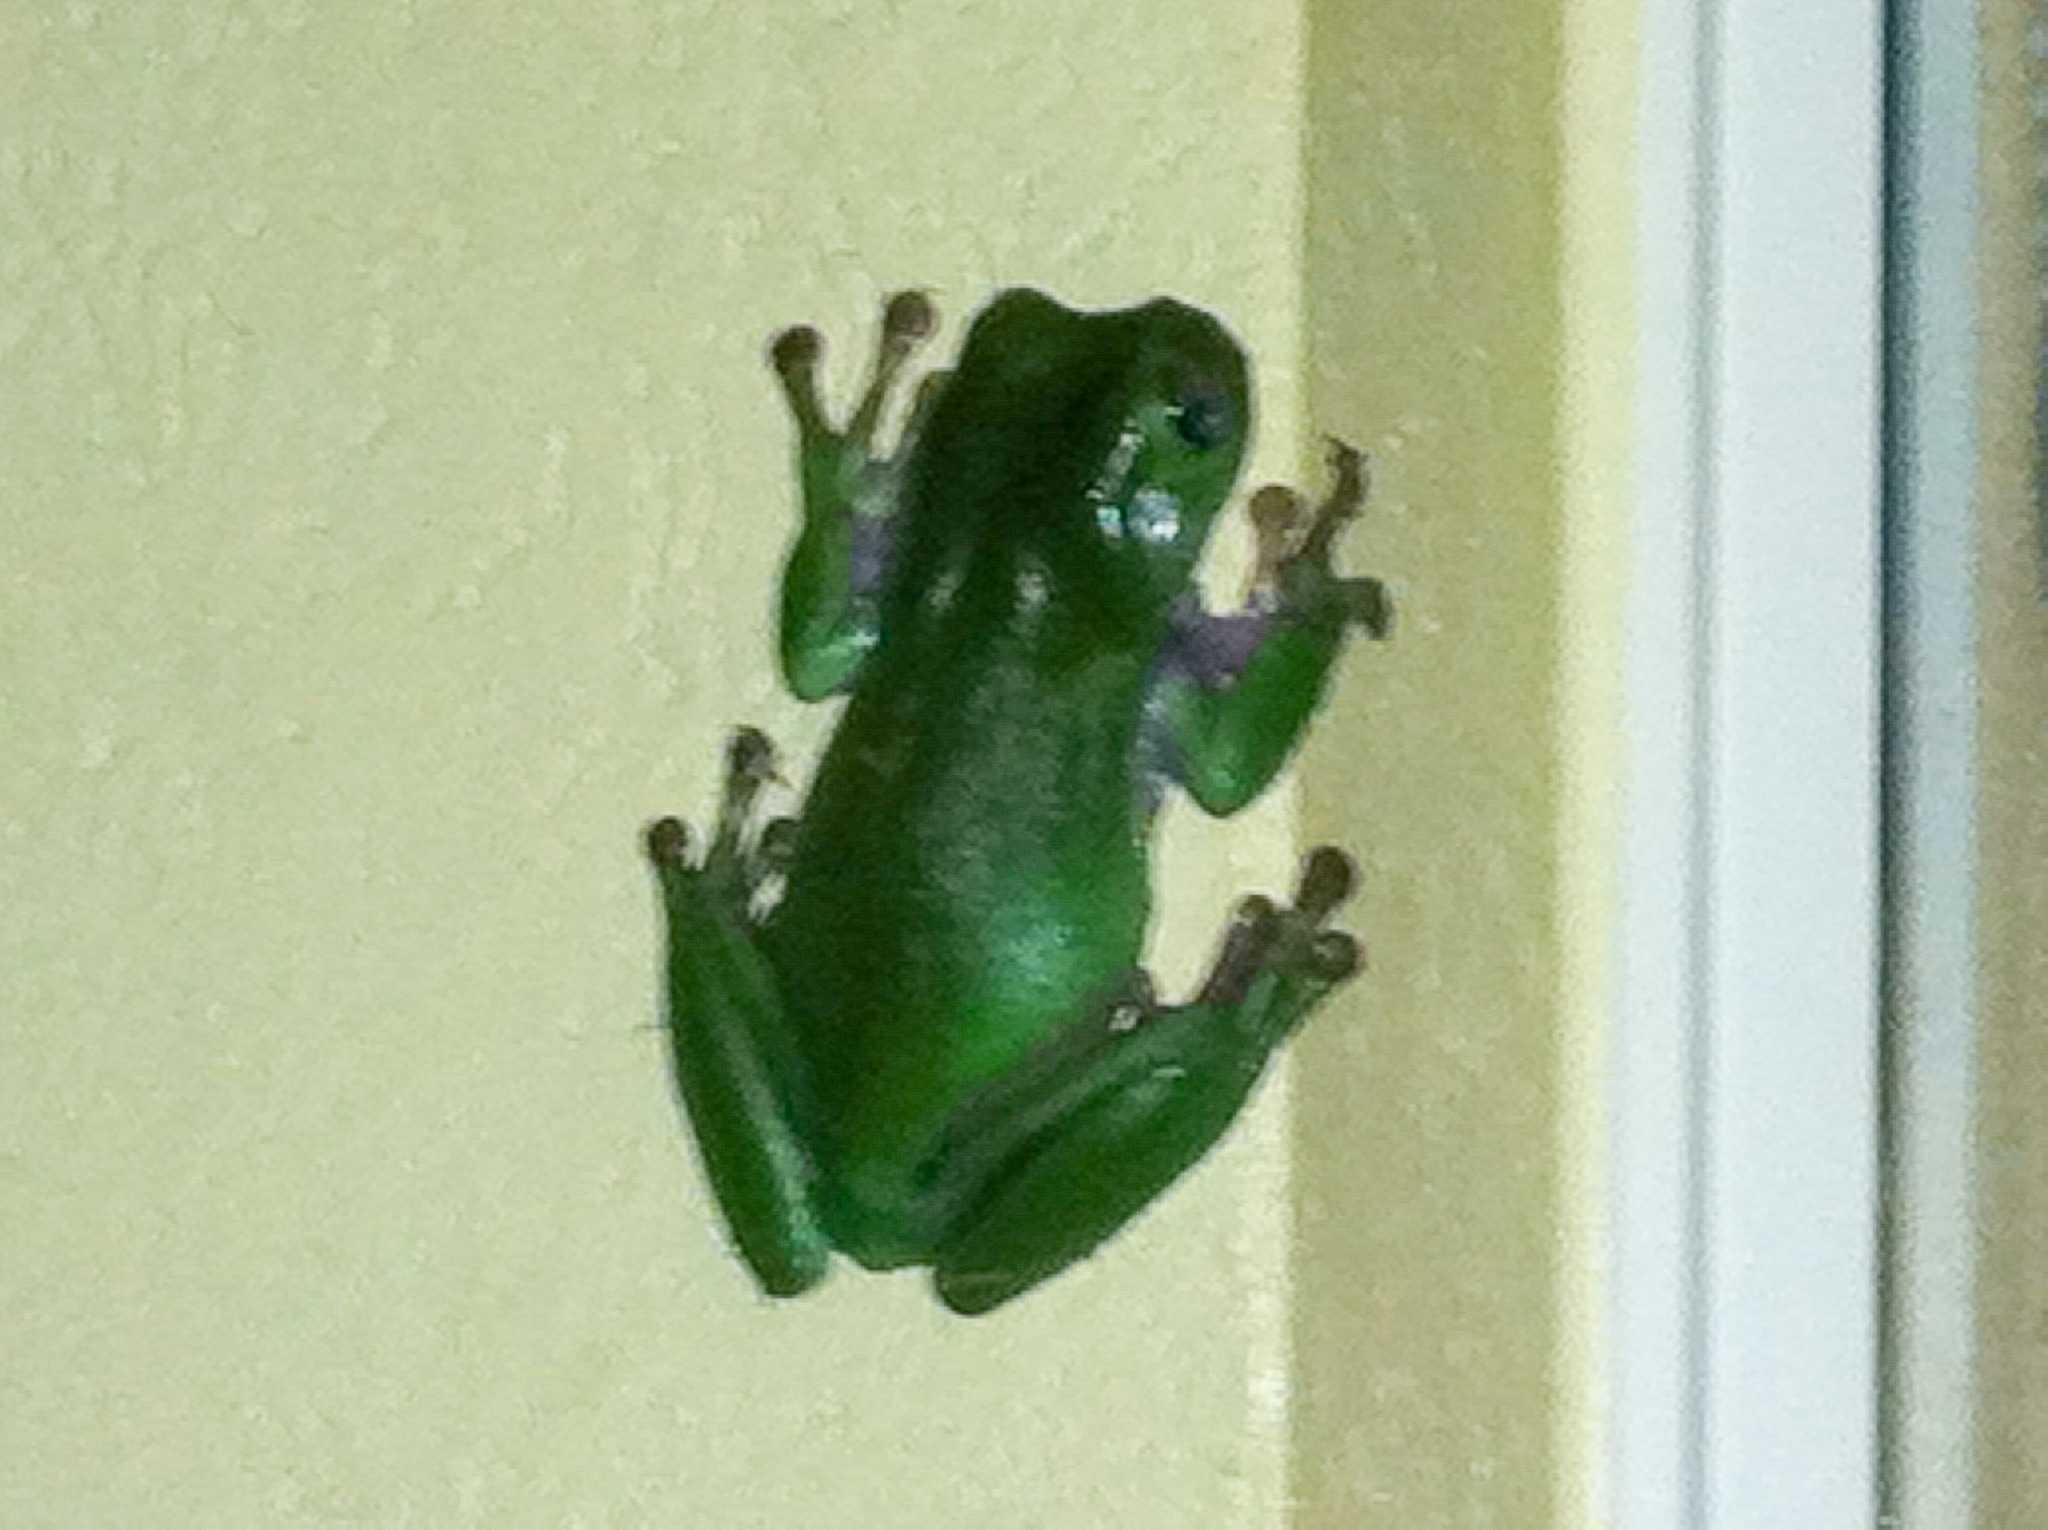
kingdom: Animalia
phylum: Chordata
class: Amphibia
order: Anura
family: Pelodryadidae
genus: Ranoidea
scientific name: Ranoidea caerulea
